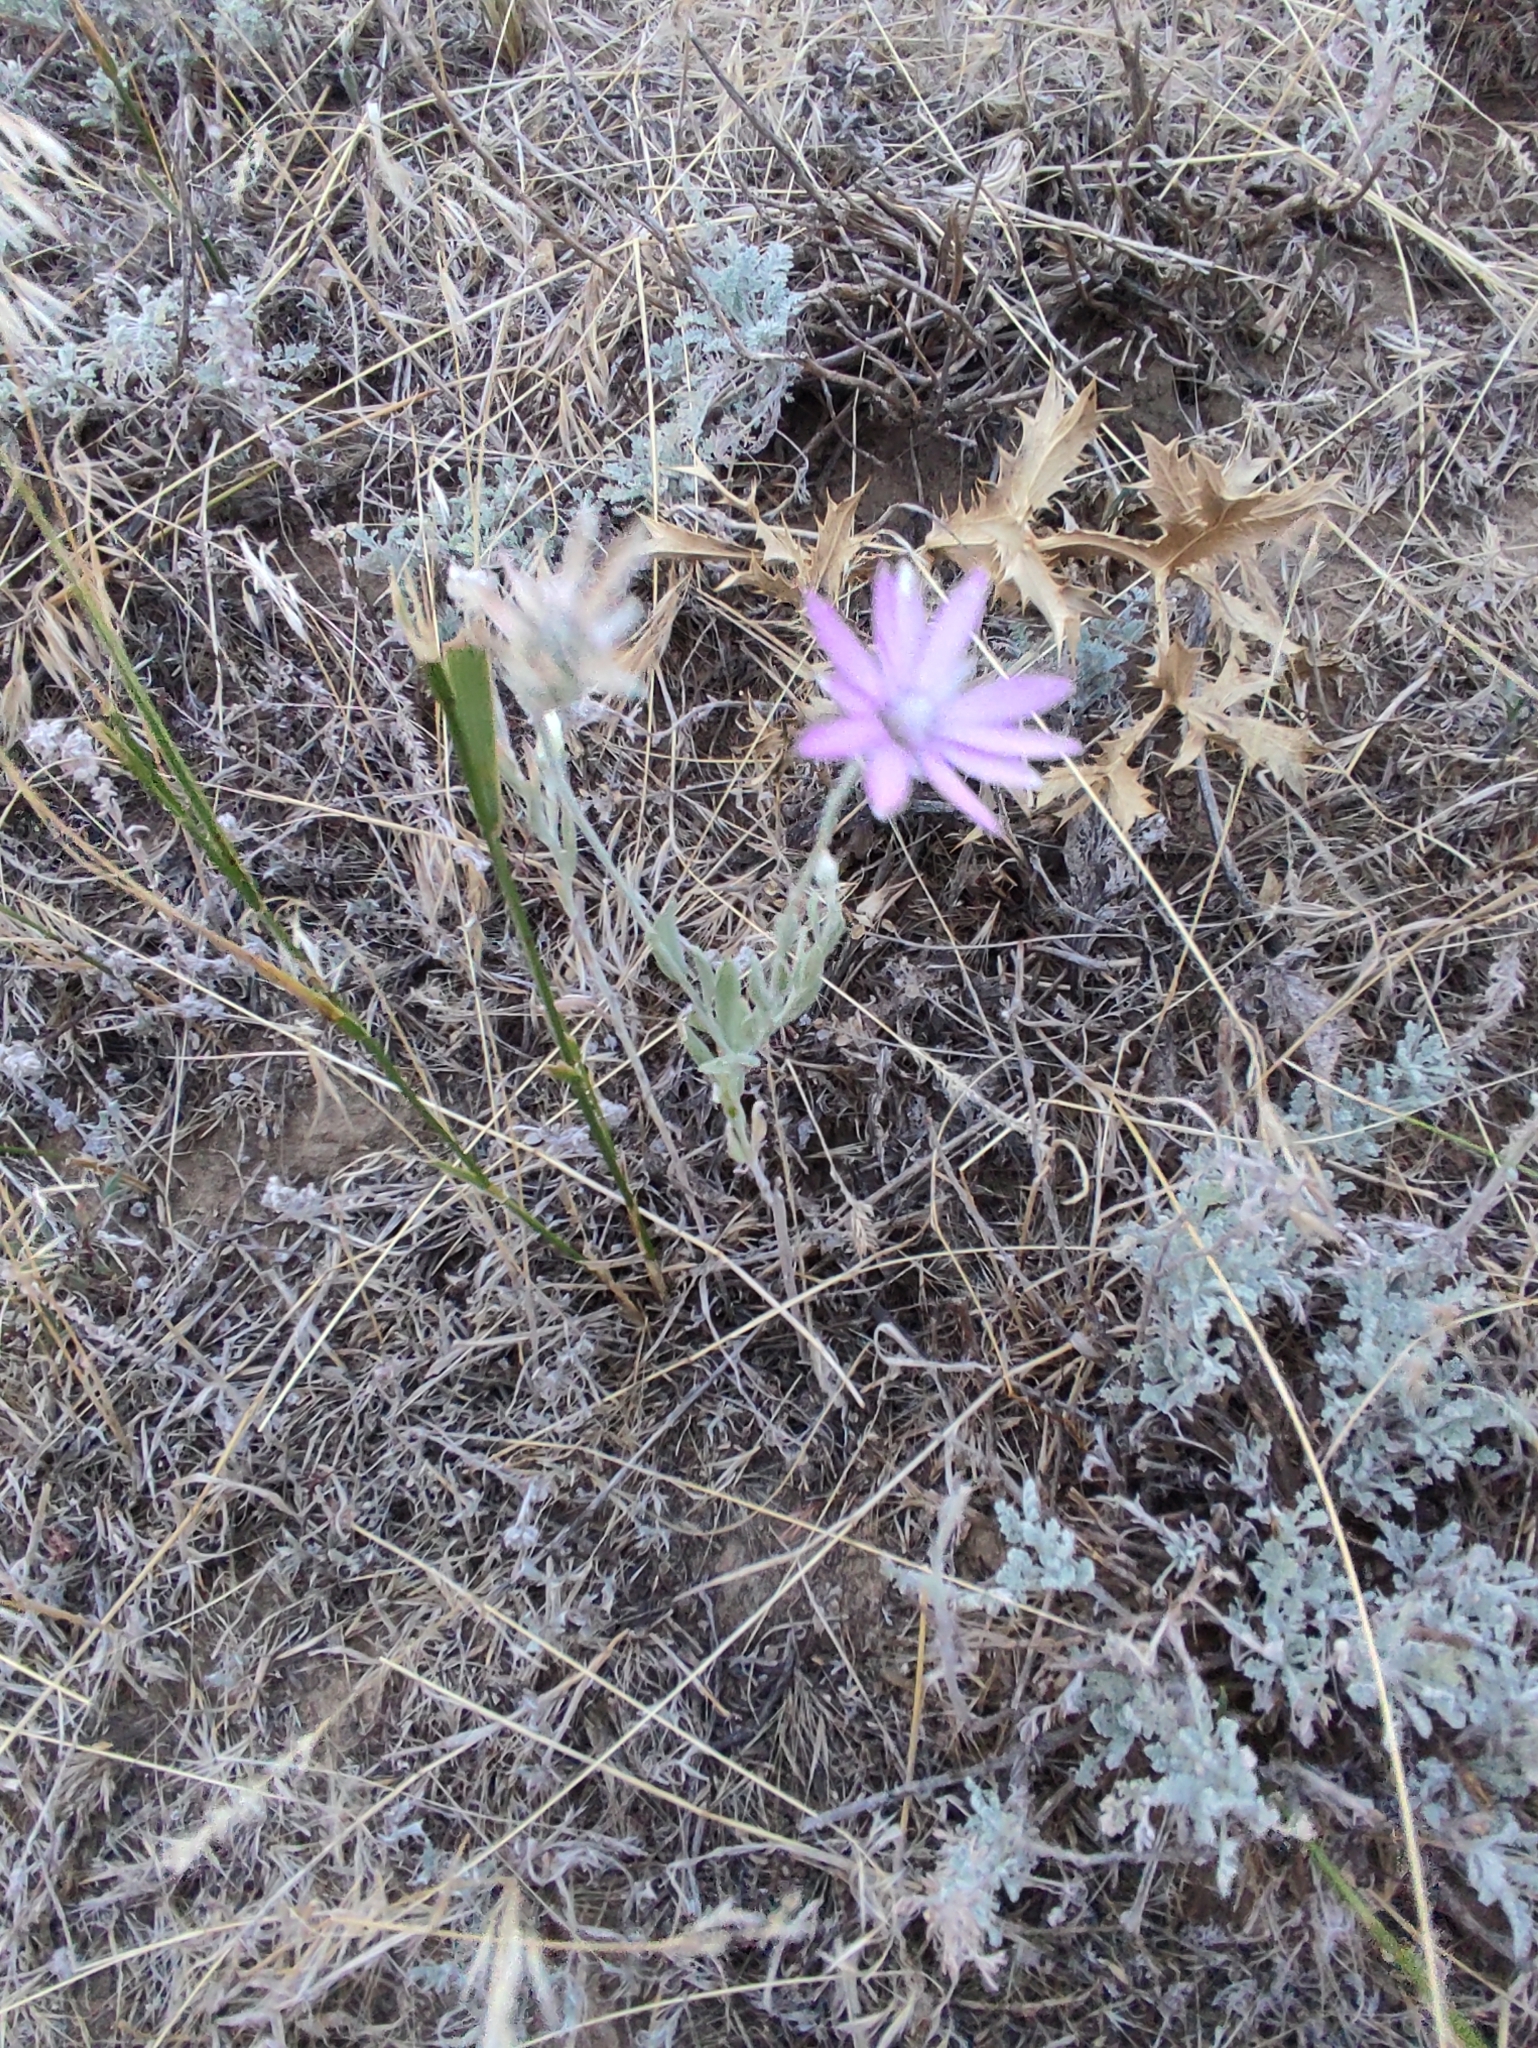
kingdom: Plantae
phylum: Tracheophyta
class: Magnoliopsida
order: Asterales
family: Asteraceae
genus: Xeranthemum
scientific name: Xeranthemum annuum
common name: Immortelle
